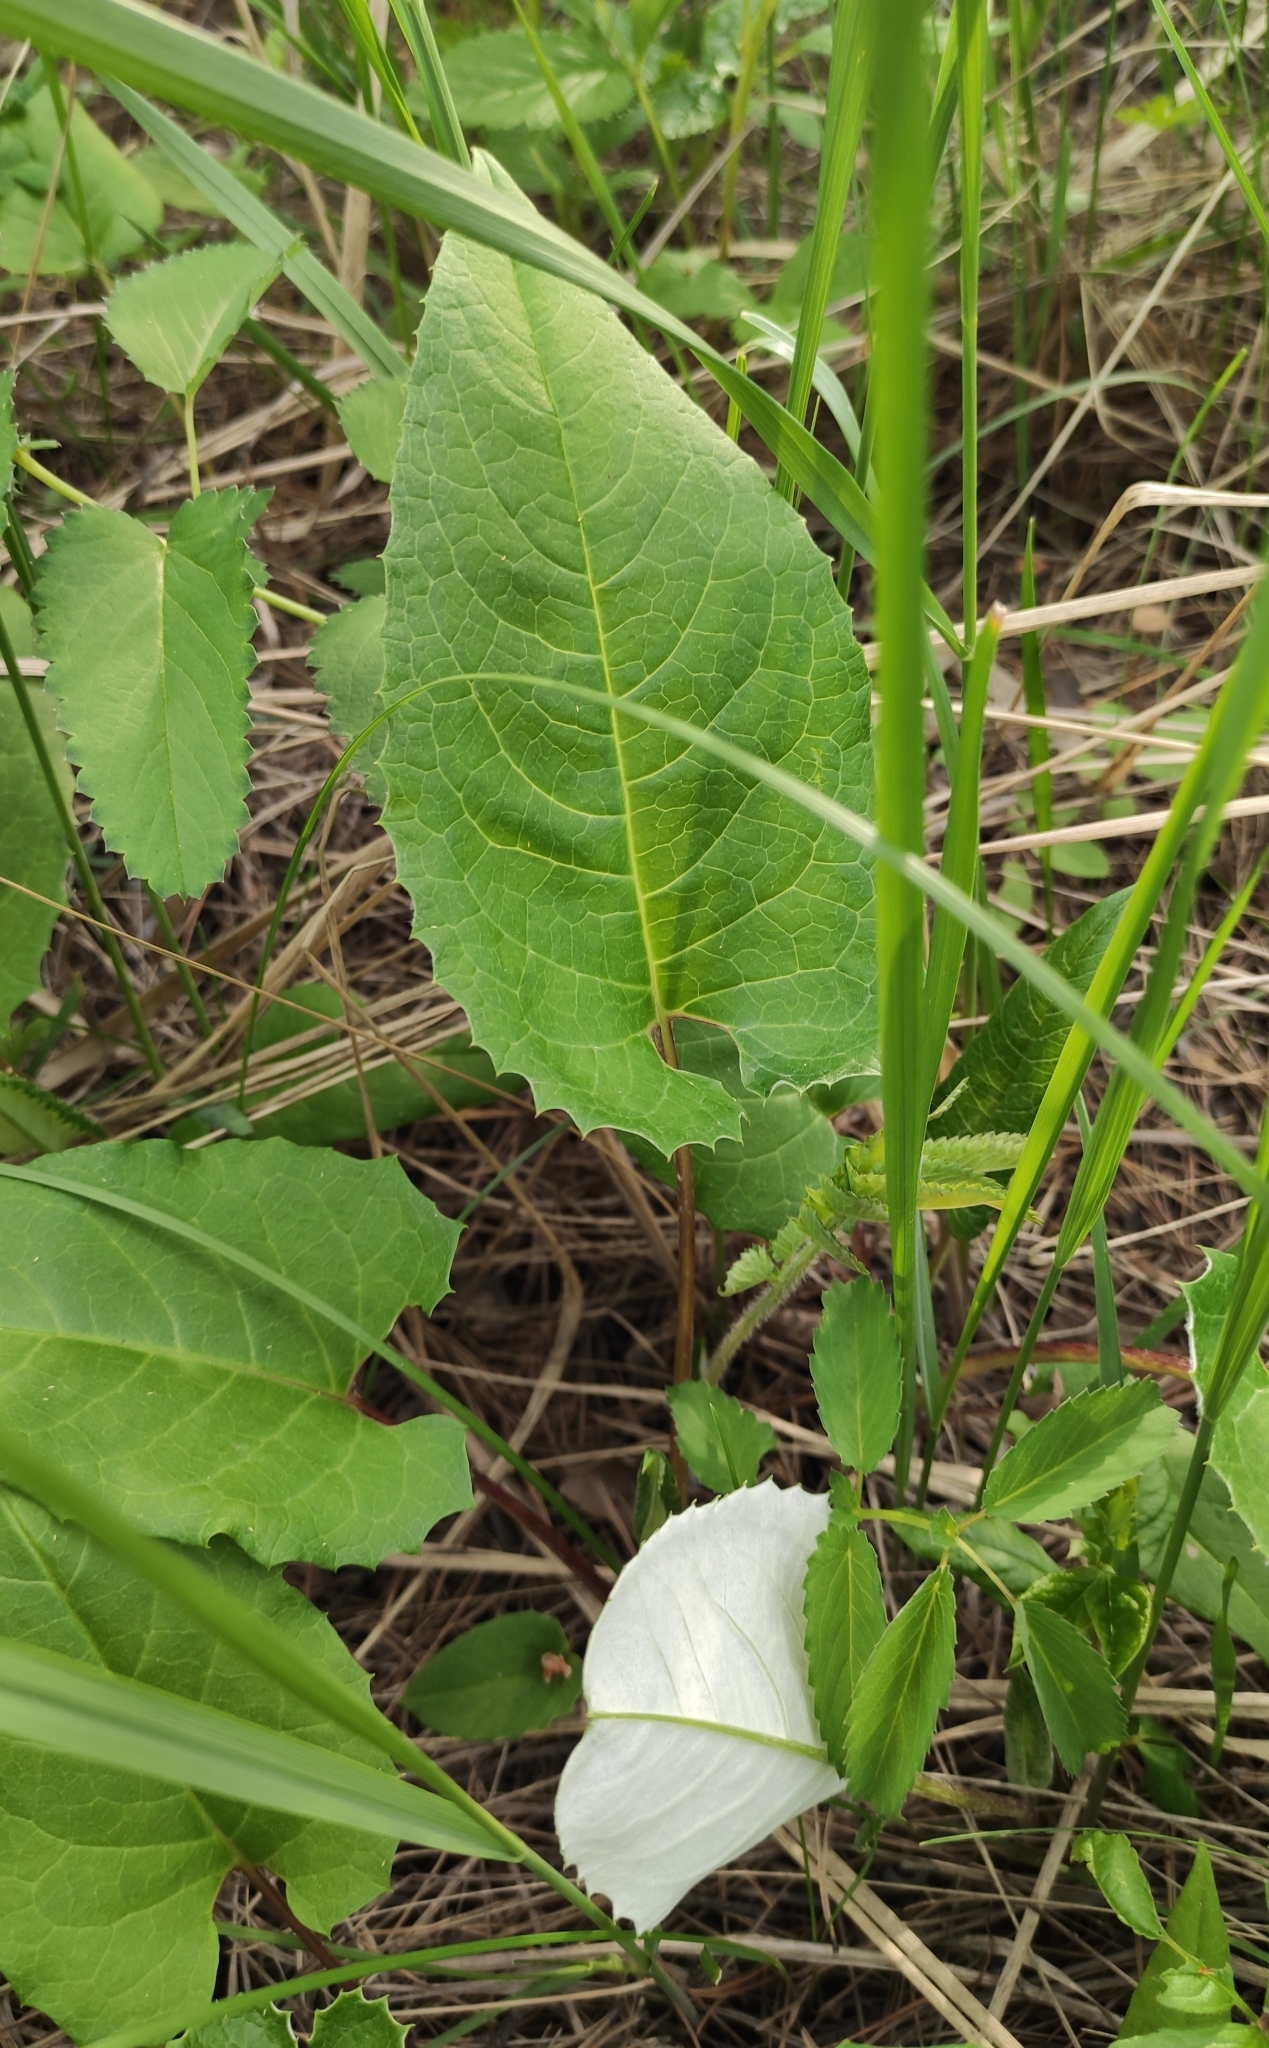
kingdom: Plantae
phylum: Tracheophyta
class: Magnoliopsida
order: Asterales
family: Asteraceae
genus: Saussurea
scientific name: Saussurea controversa
